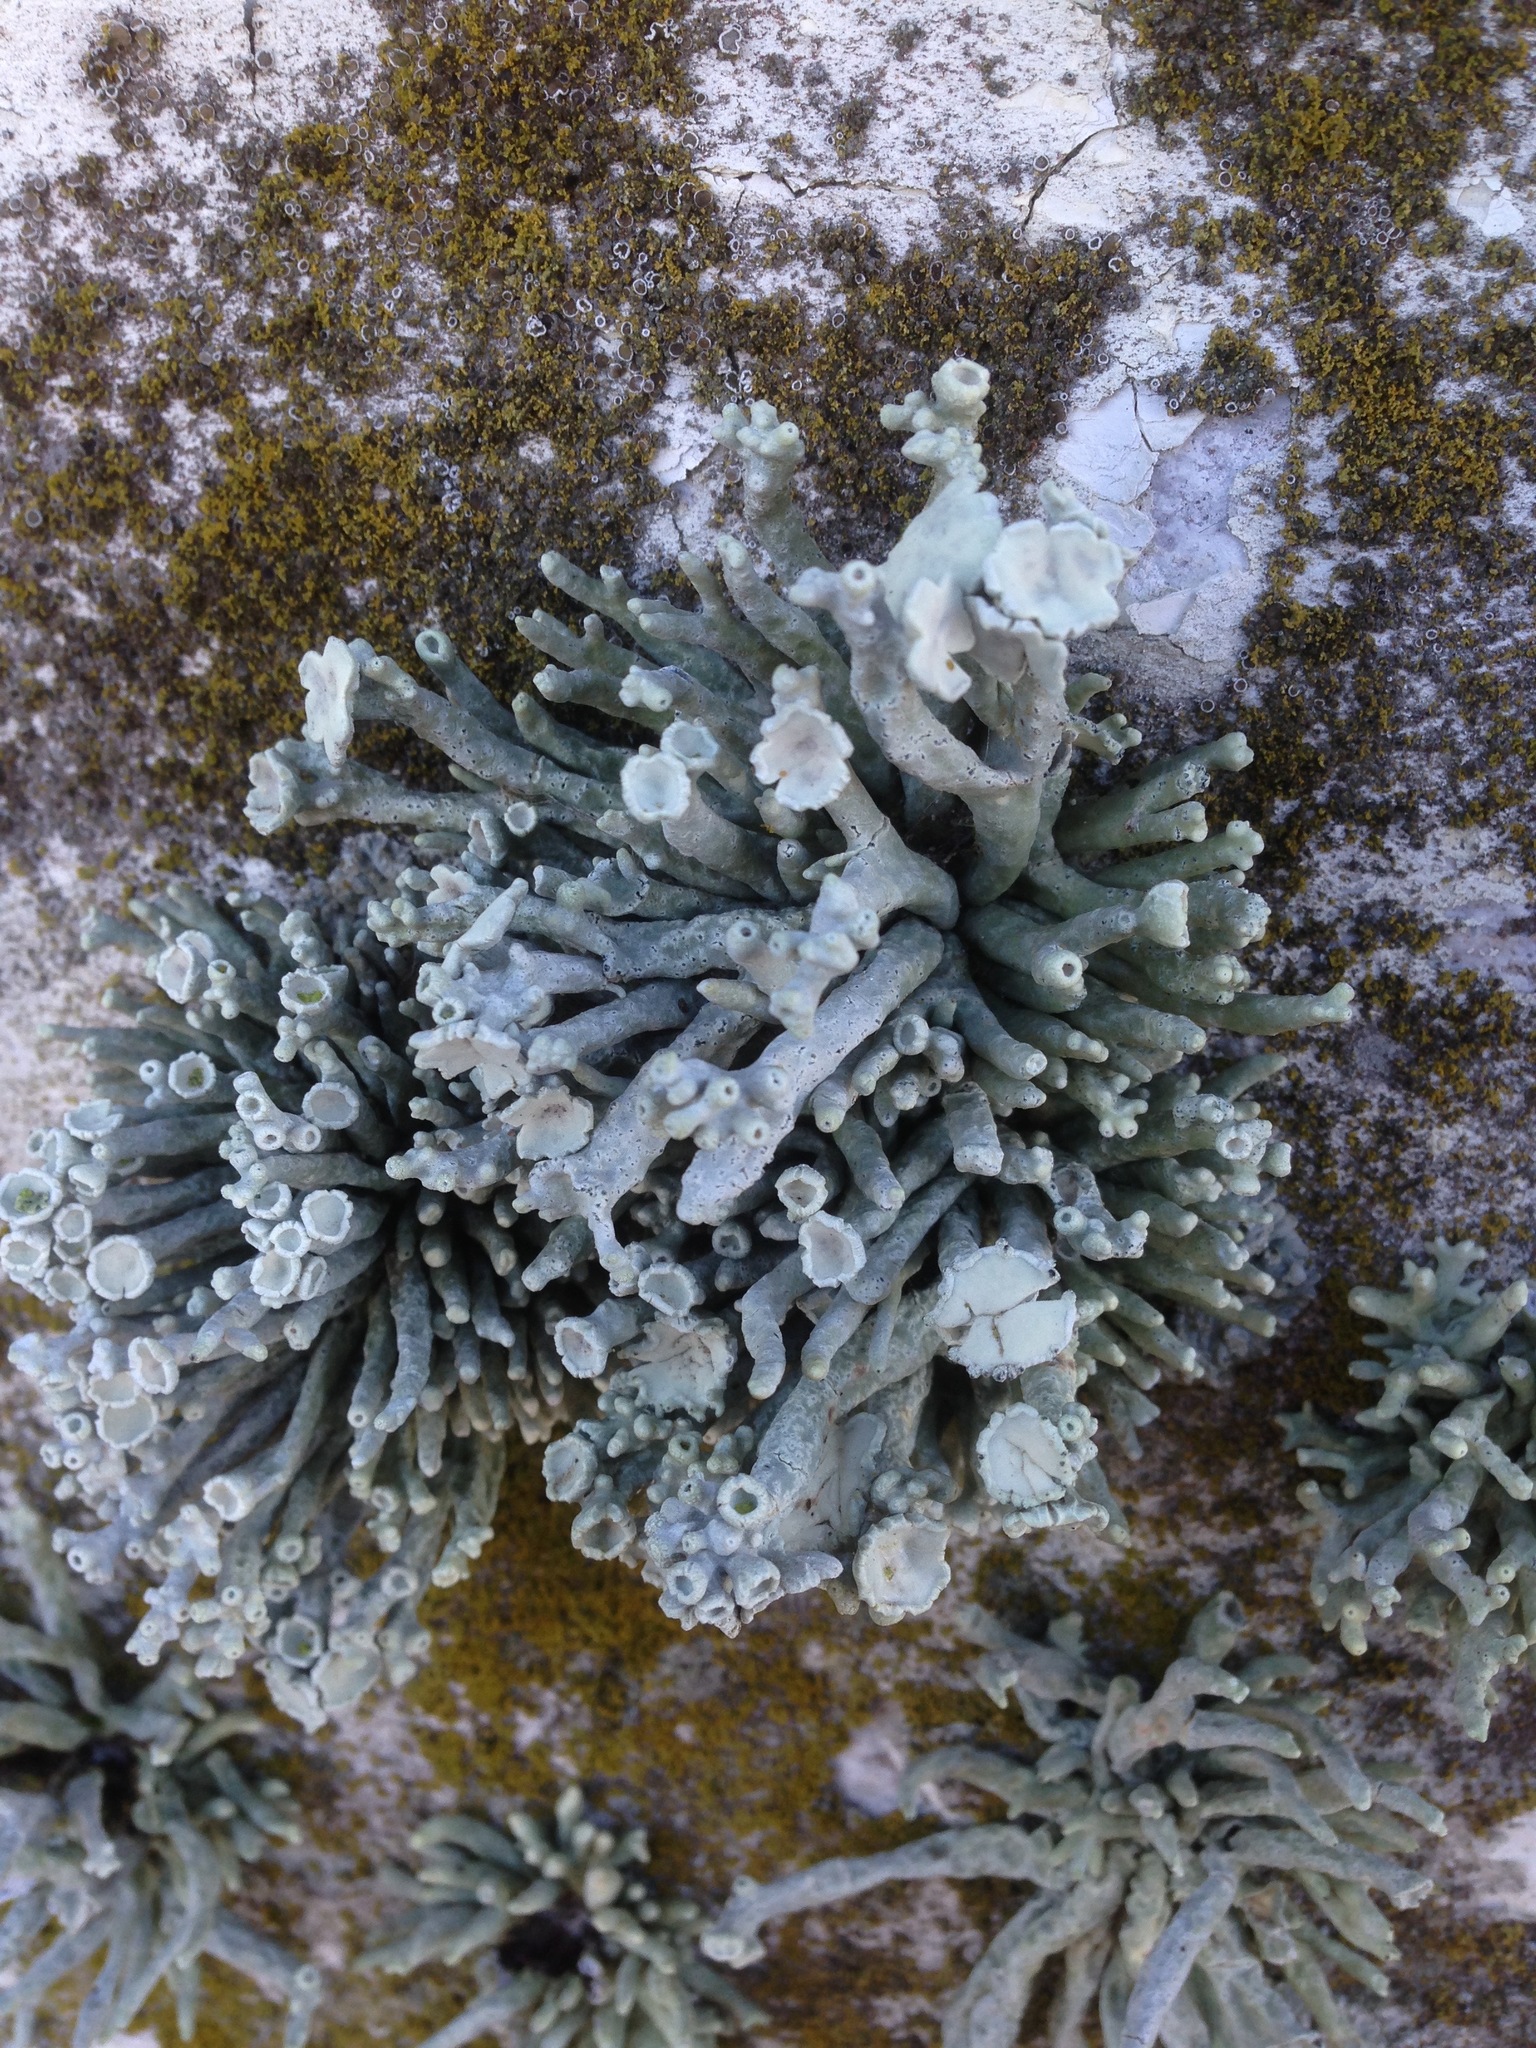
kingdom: Fungi
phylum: Ascomycota
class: Lecanoromycetes
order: Lecanorales
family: Ramalinaceae
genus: Niebla
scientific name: Niebla combeoides
